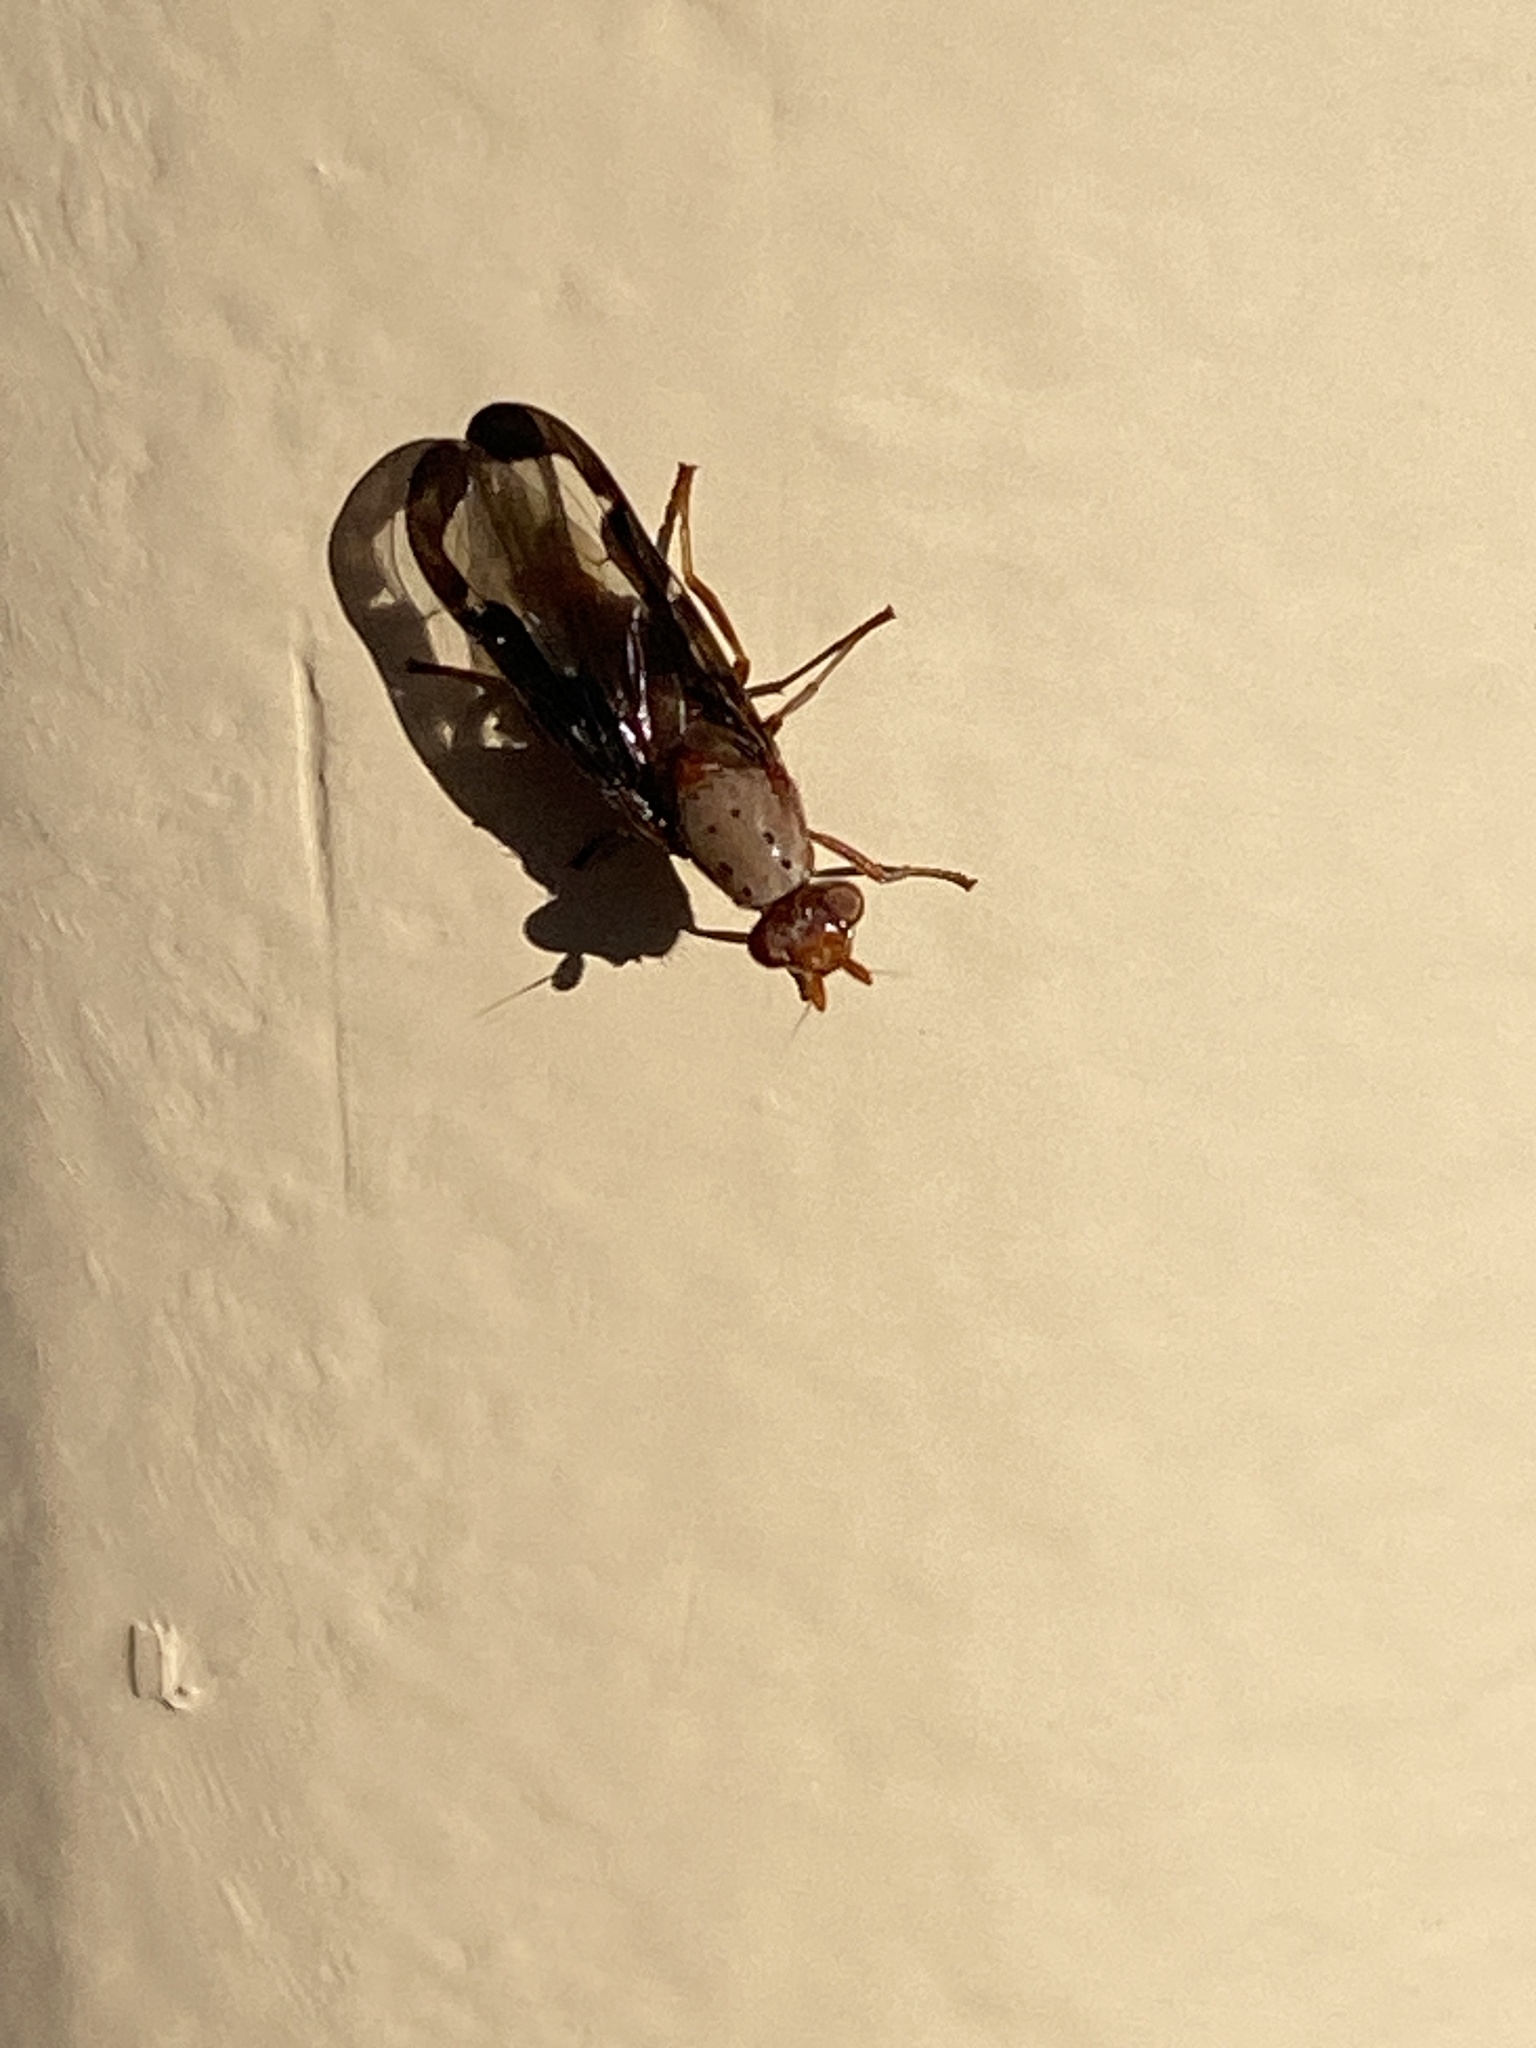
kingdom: Animalia
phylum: Arthropoda
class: Insecta
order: Diptera
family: Ulidiidae
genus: Diacrita
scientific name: Diacrita costalis
